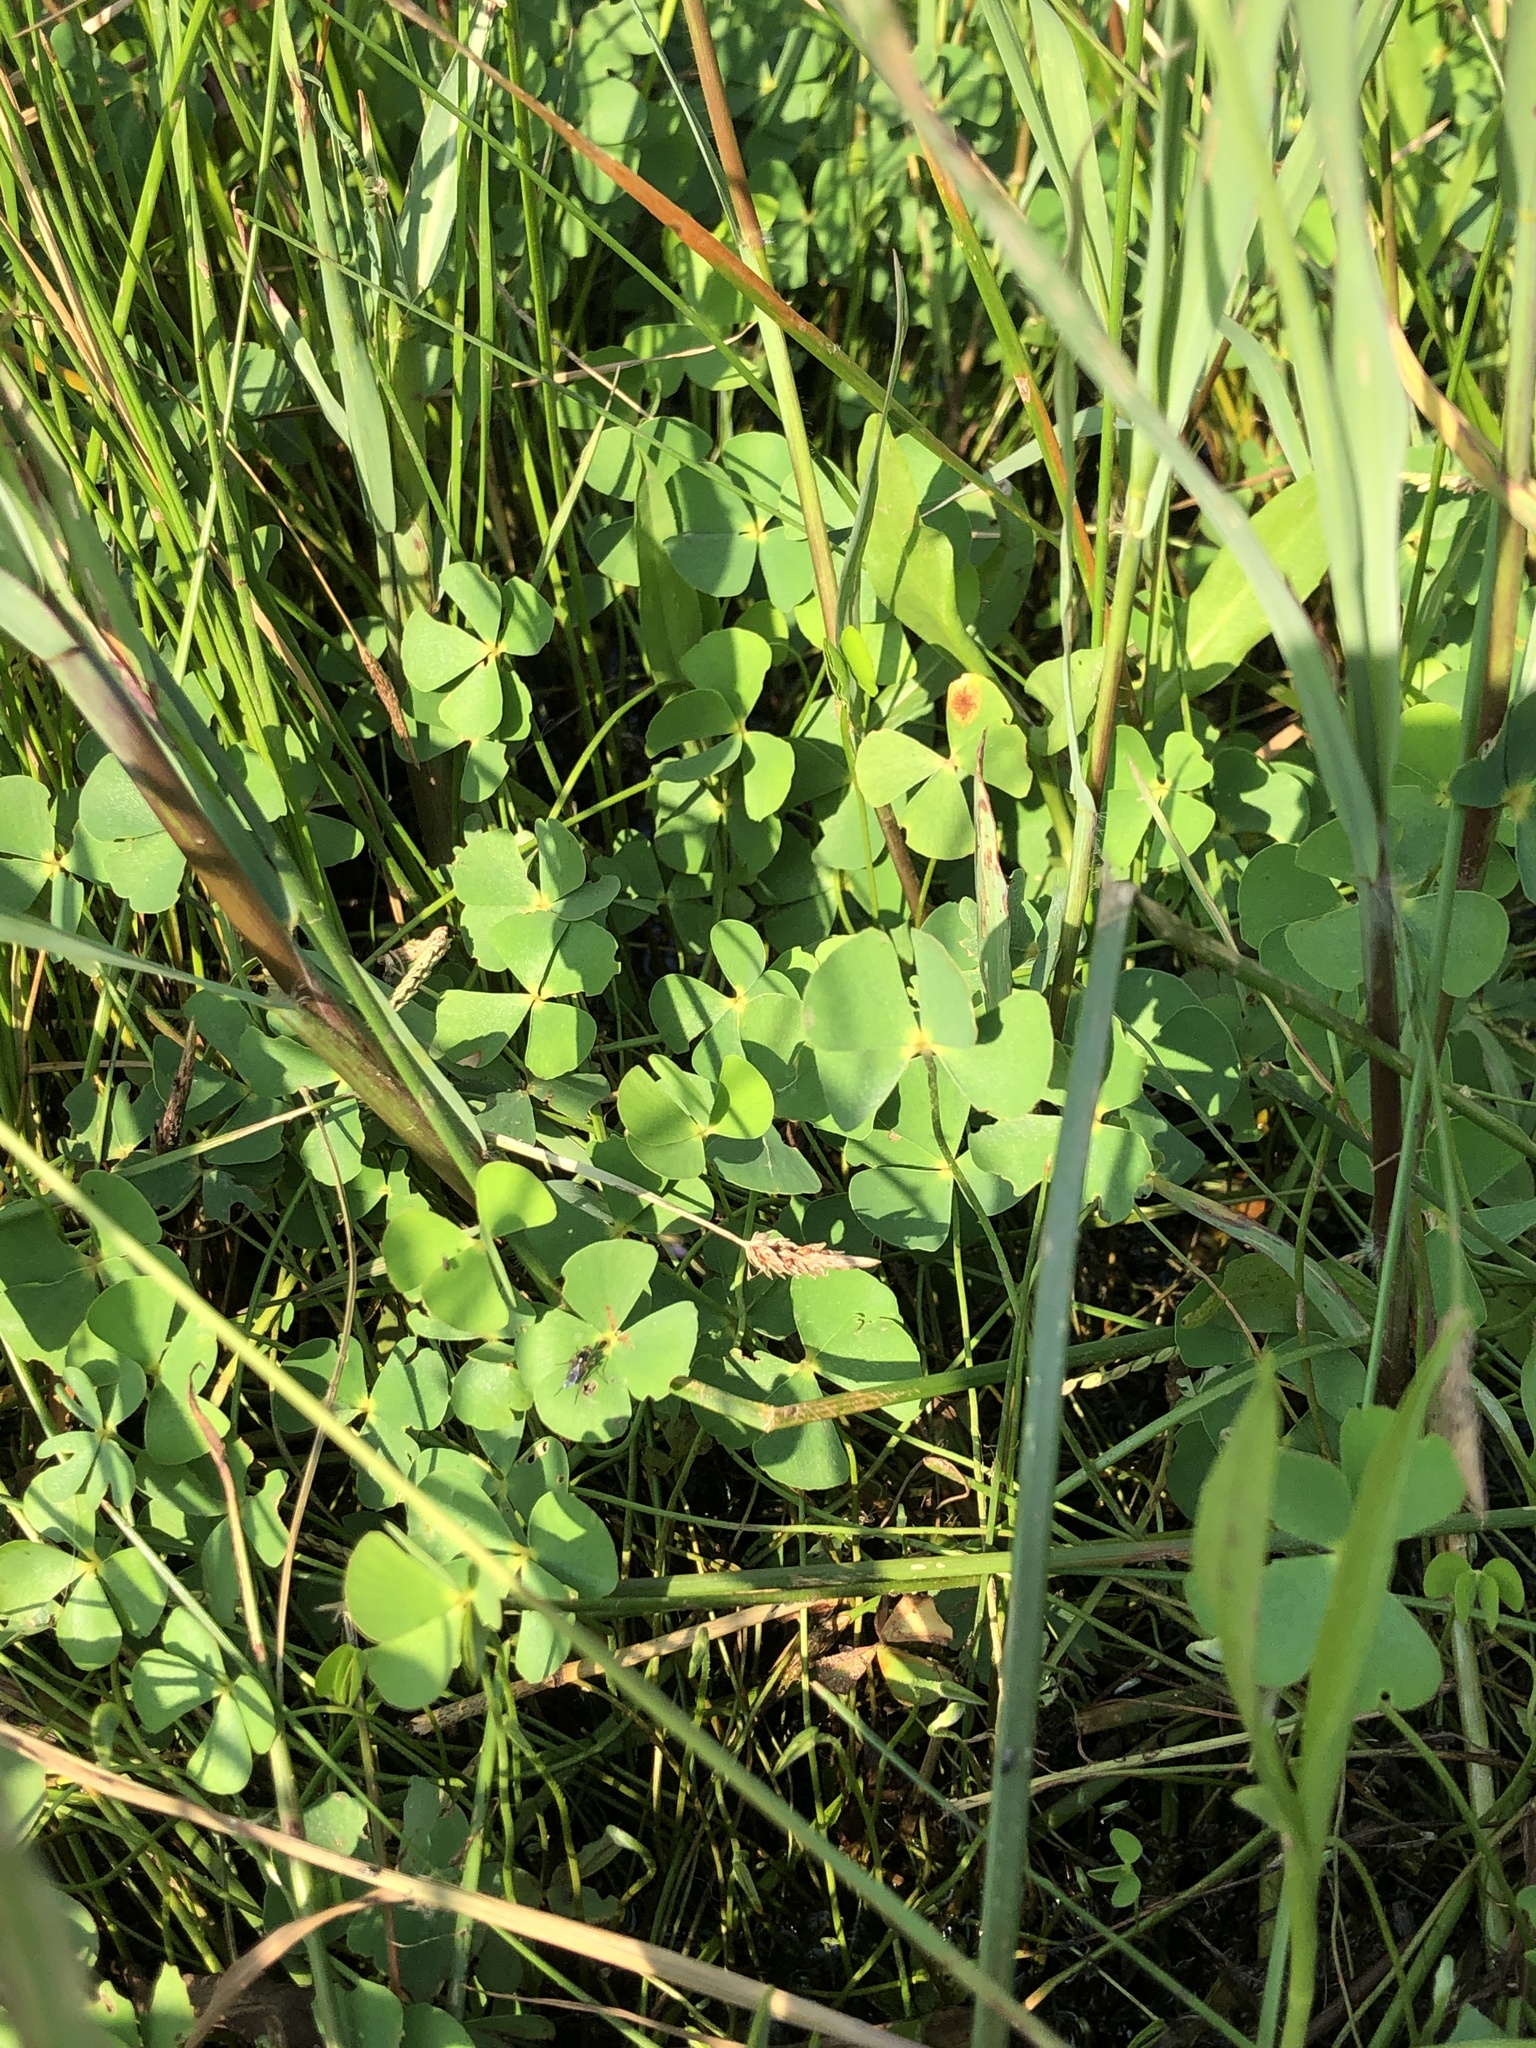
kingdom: Plantae
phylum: Tracheophyta
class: Polypodiopsida
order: Salviniales
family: Marsileaceae
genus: Marsilea
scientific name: Marsilea vestita
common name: Hooked-pepperwort
